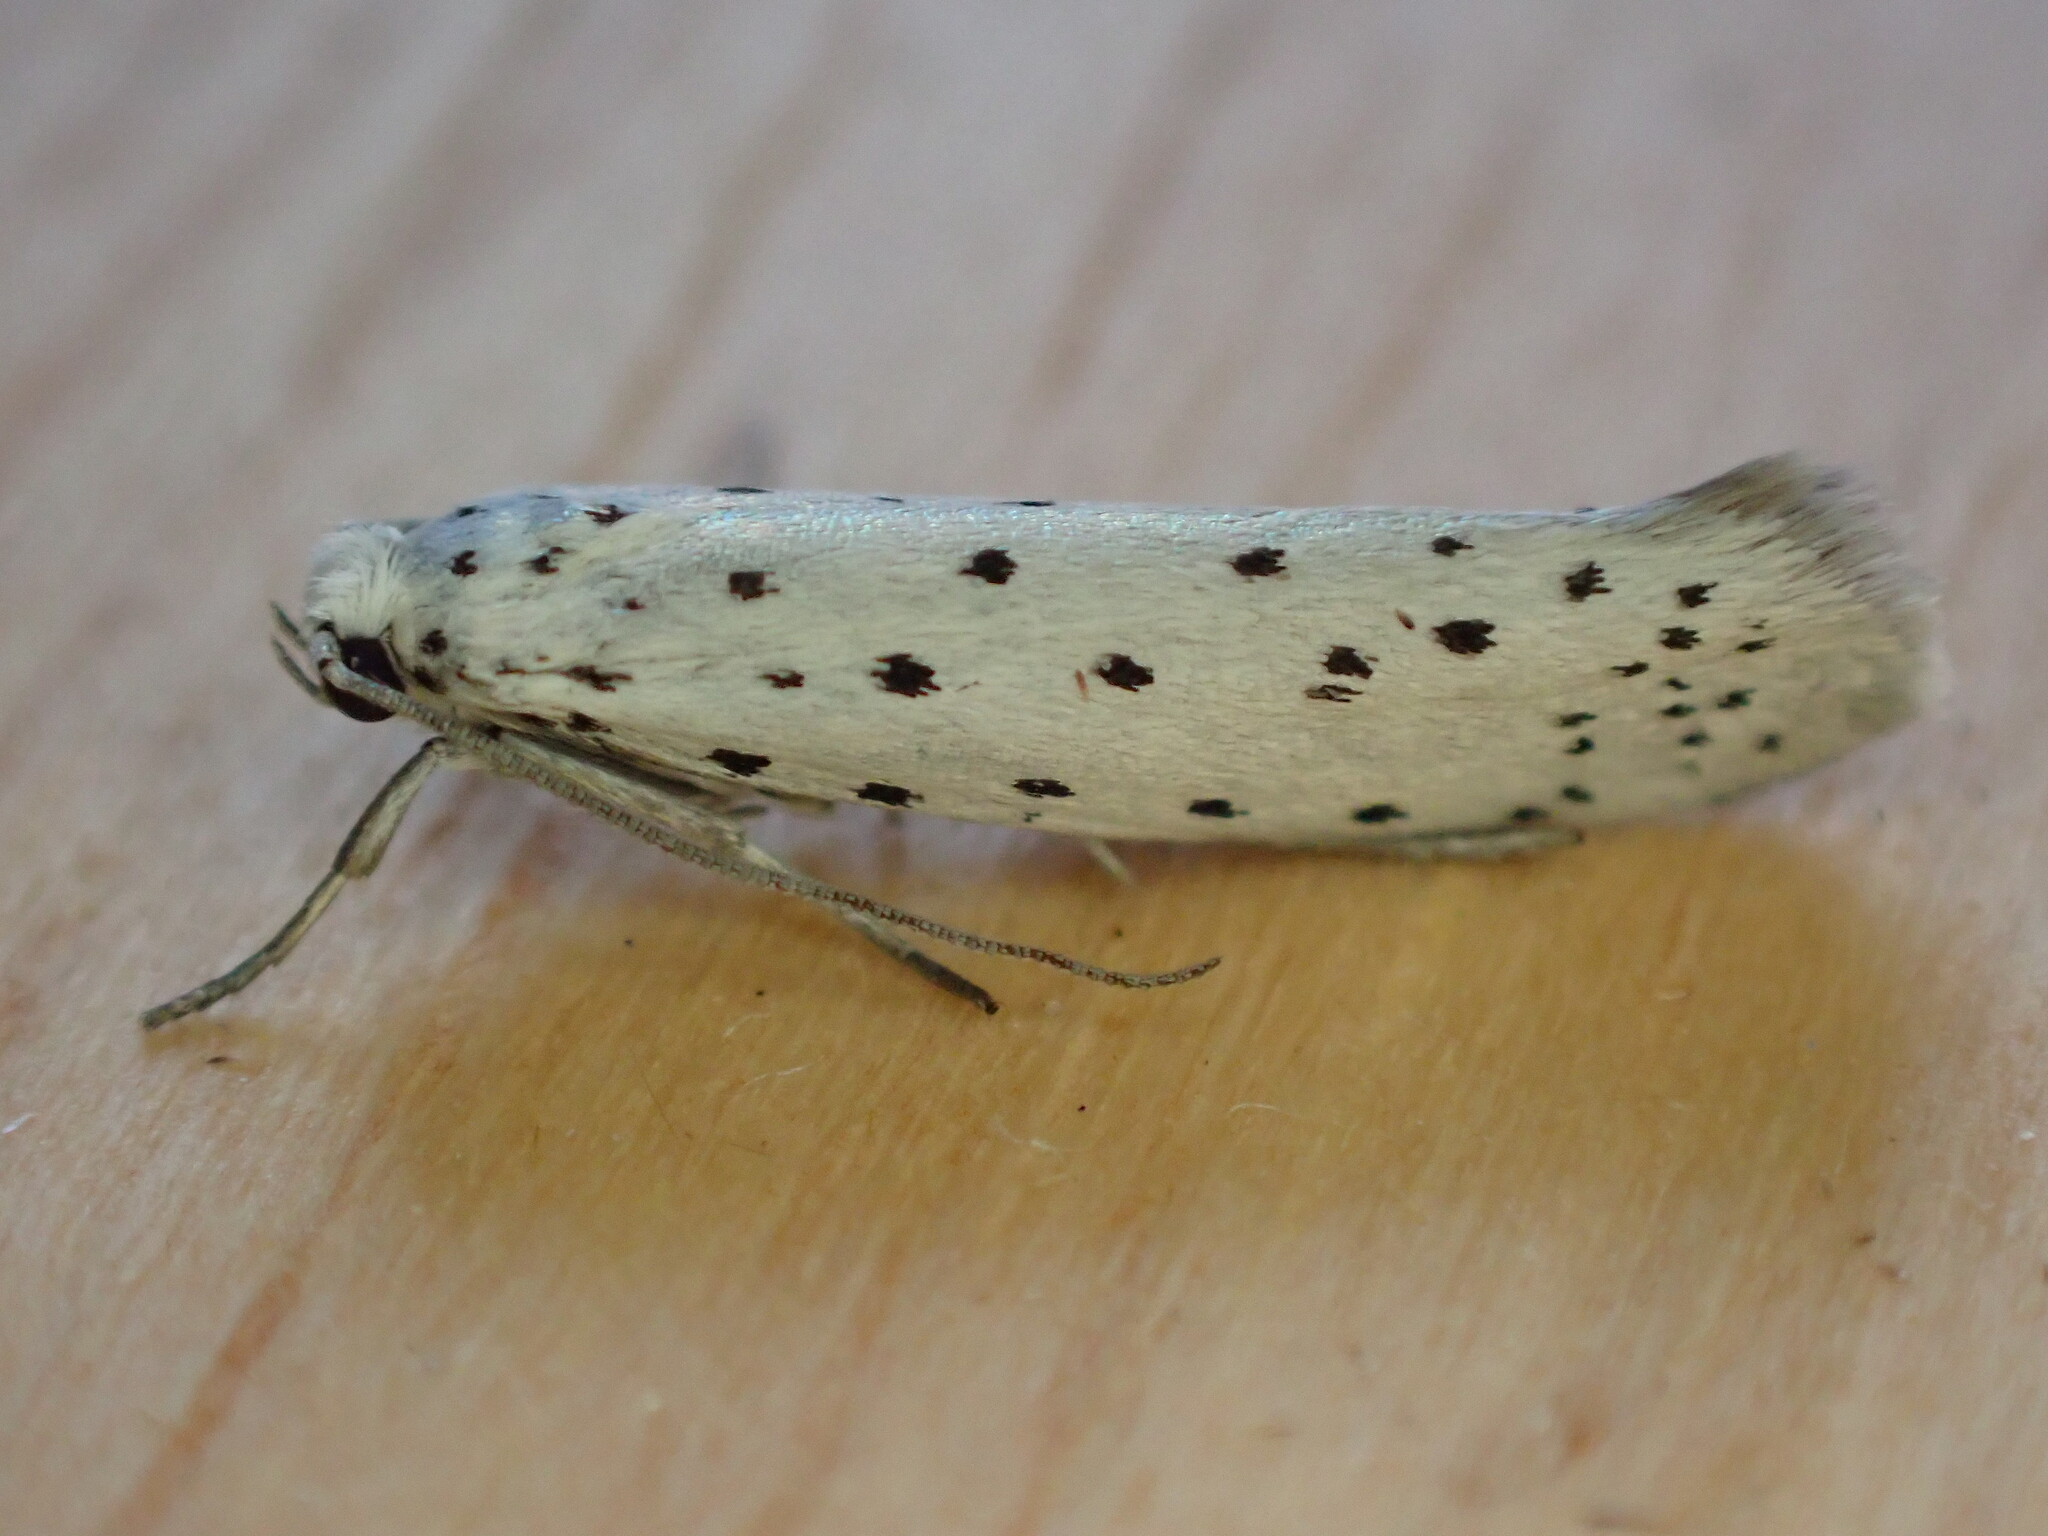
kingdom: Animalia
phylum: Arthropoda
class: Insecta
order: Lepidoptera
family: Yponomeutidae
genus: Yponomeuta
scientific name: Yponomeuta
